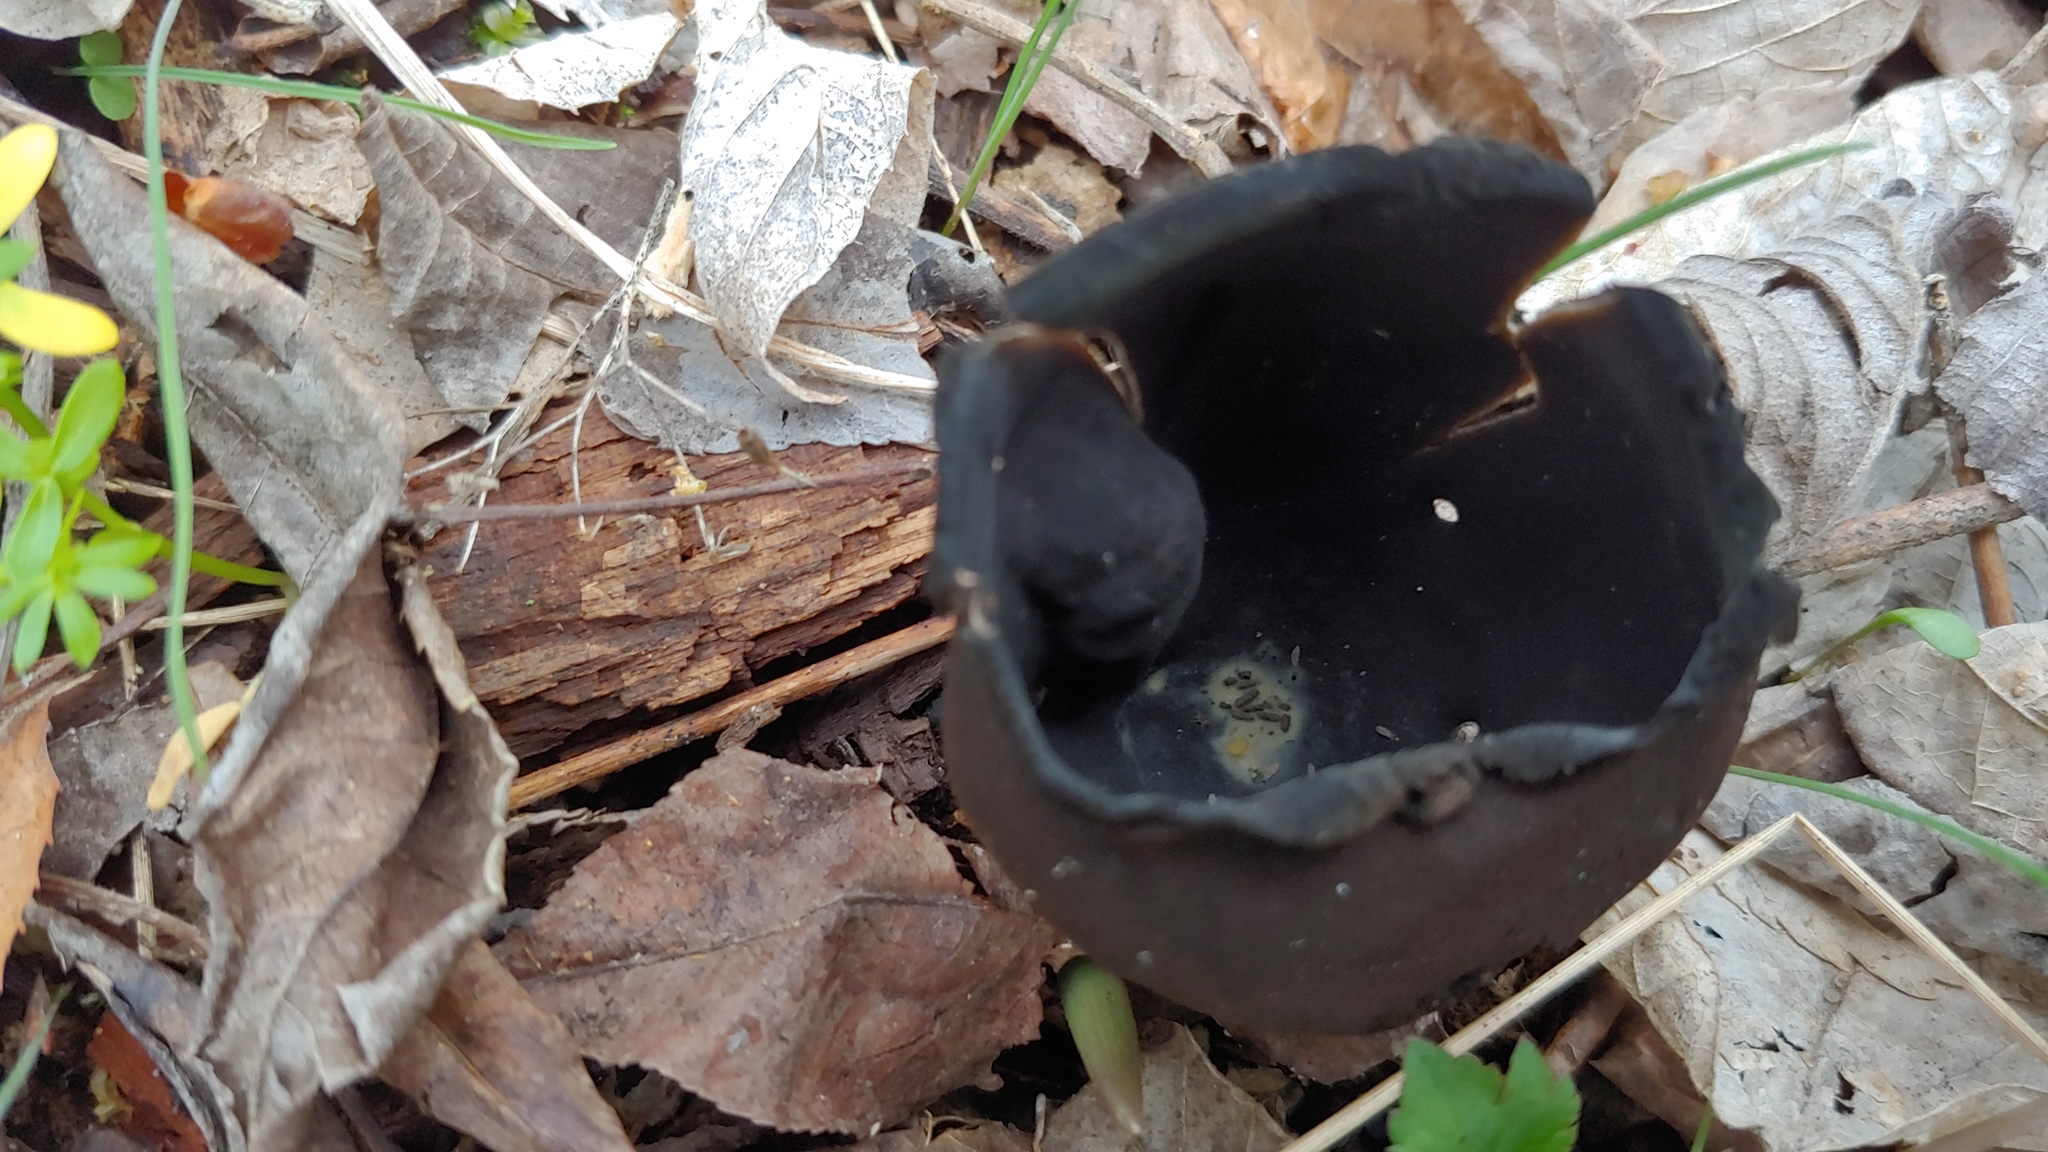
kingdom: Fungi
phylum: Ascomycota
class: Pezizomycetes
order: Pezizales
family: Sarcosomataceae
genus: Urnula
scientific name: Urnula craterium
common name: Devil's urn
